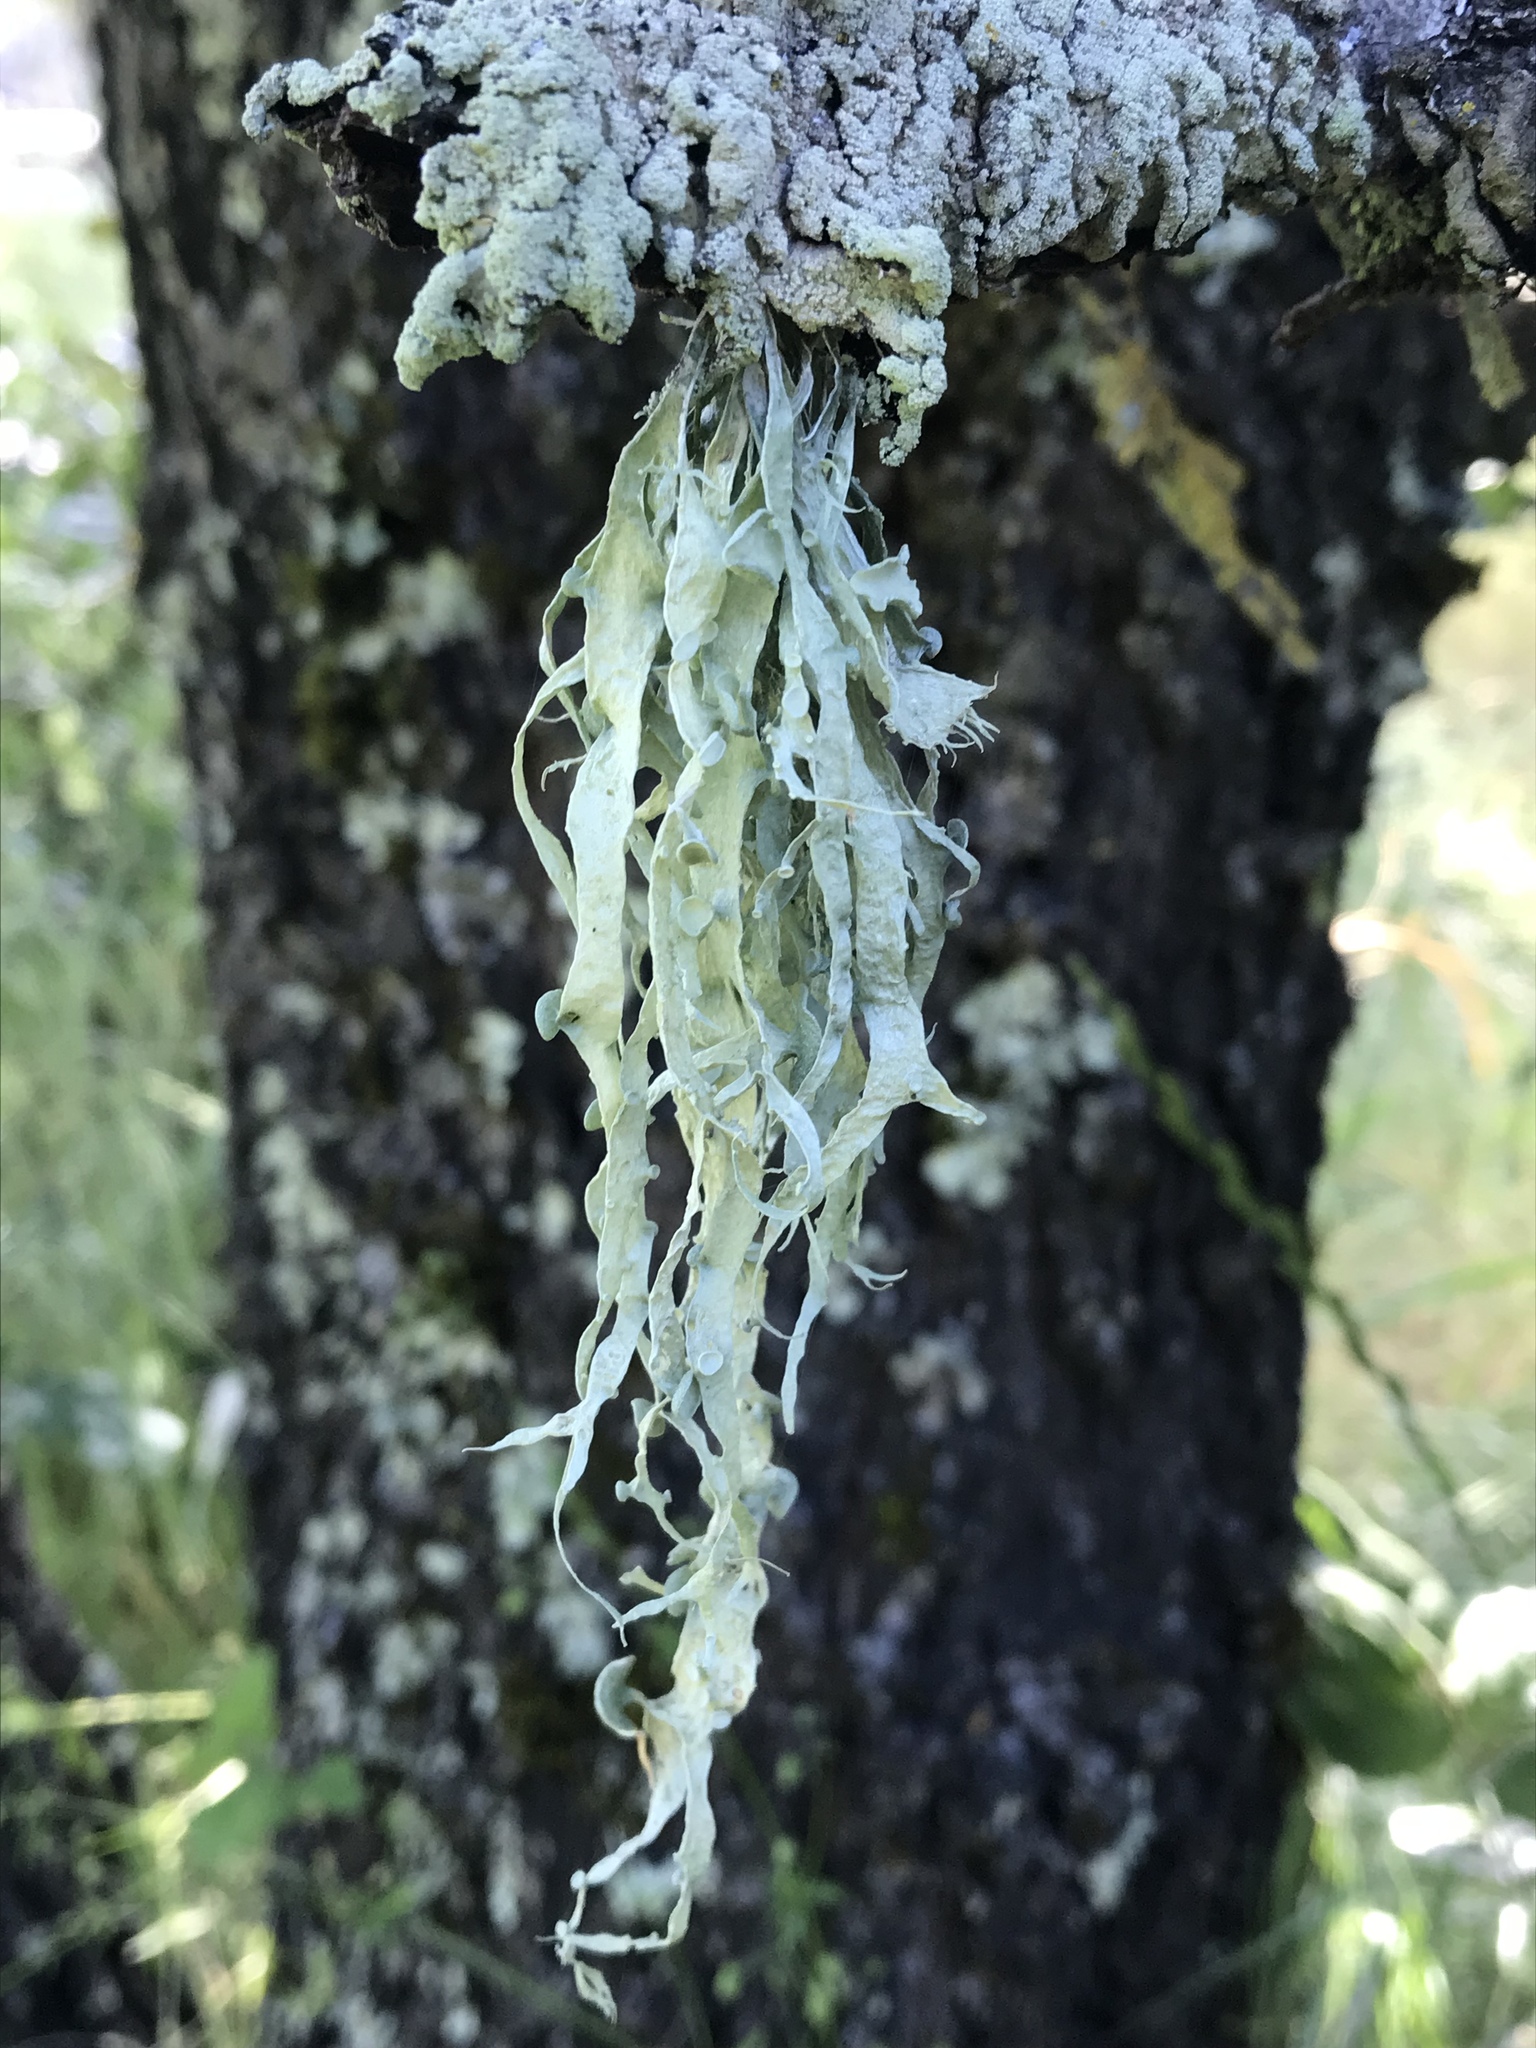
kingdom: Fungi
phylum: Ascomycota
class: Lecanoromycetes
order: Lecanorales
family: Ramalinaceae
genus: Ramalina
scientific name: Ramalina leptocarpha
